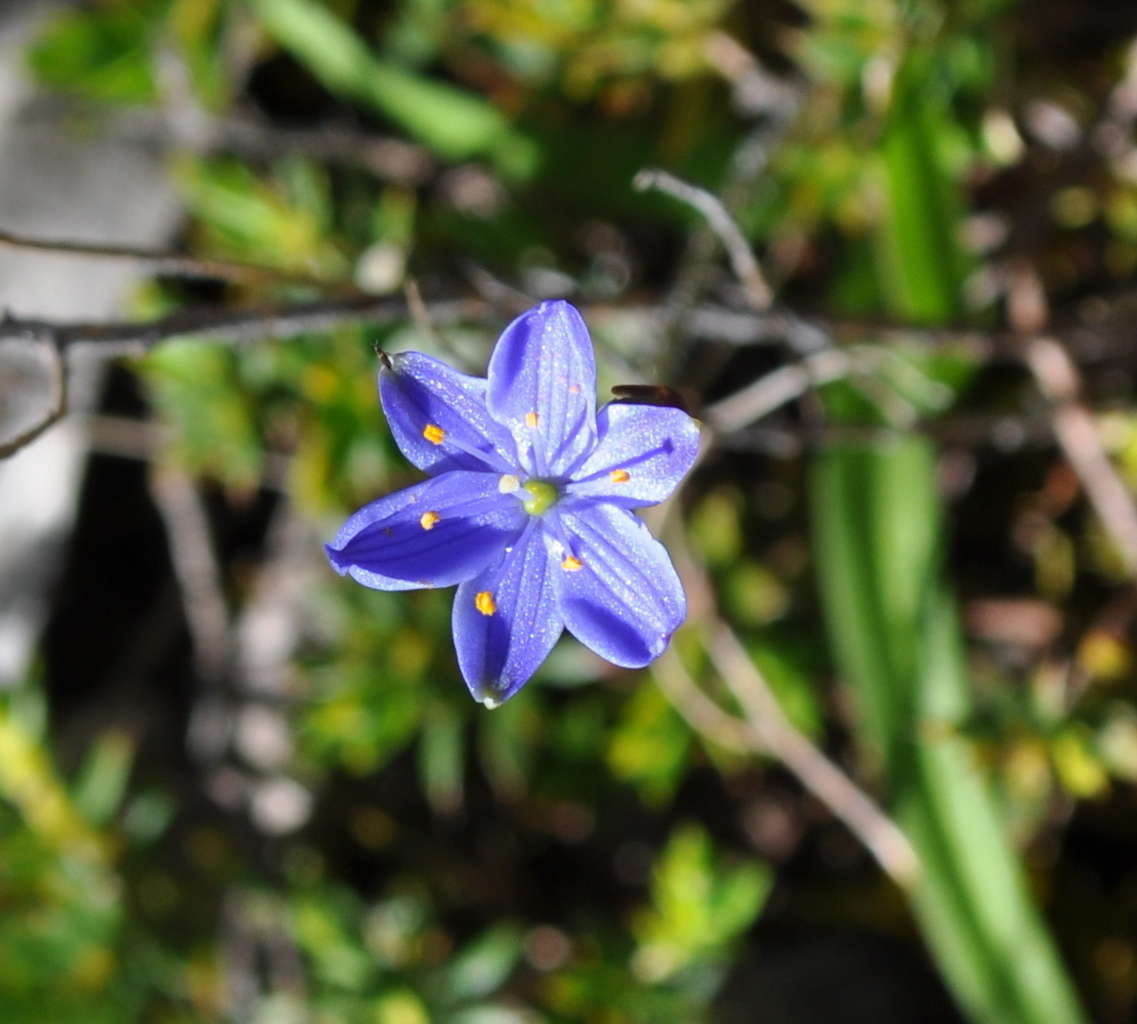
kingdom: Plantae
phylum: Tracheophyta
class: Liliopsida
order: Asparagales
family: Asphodelaceae
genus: Chamaescilla
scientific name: Chamaescilla corymbosa
